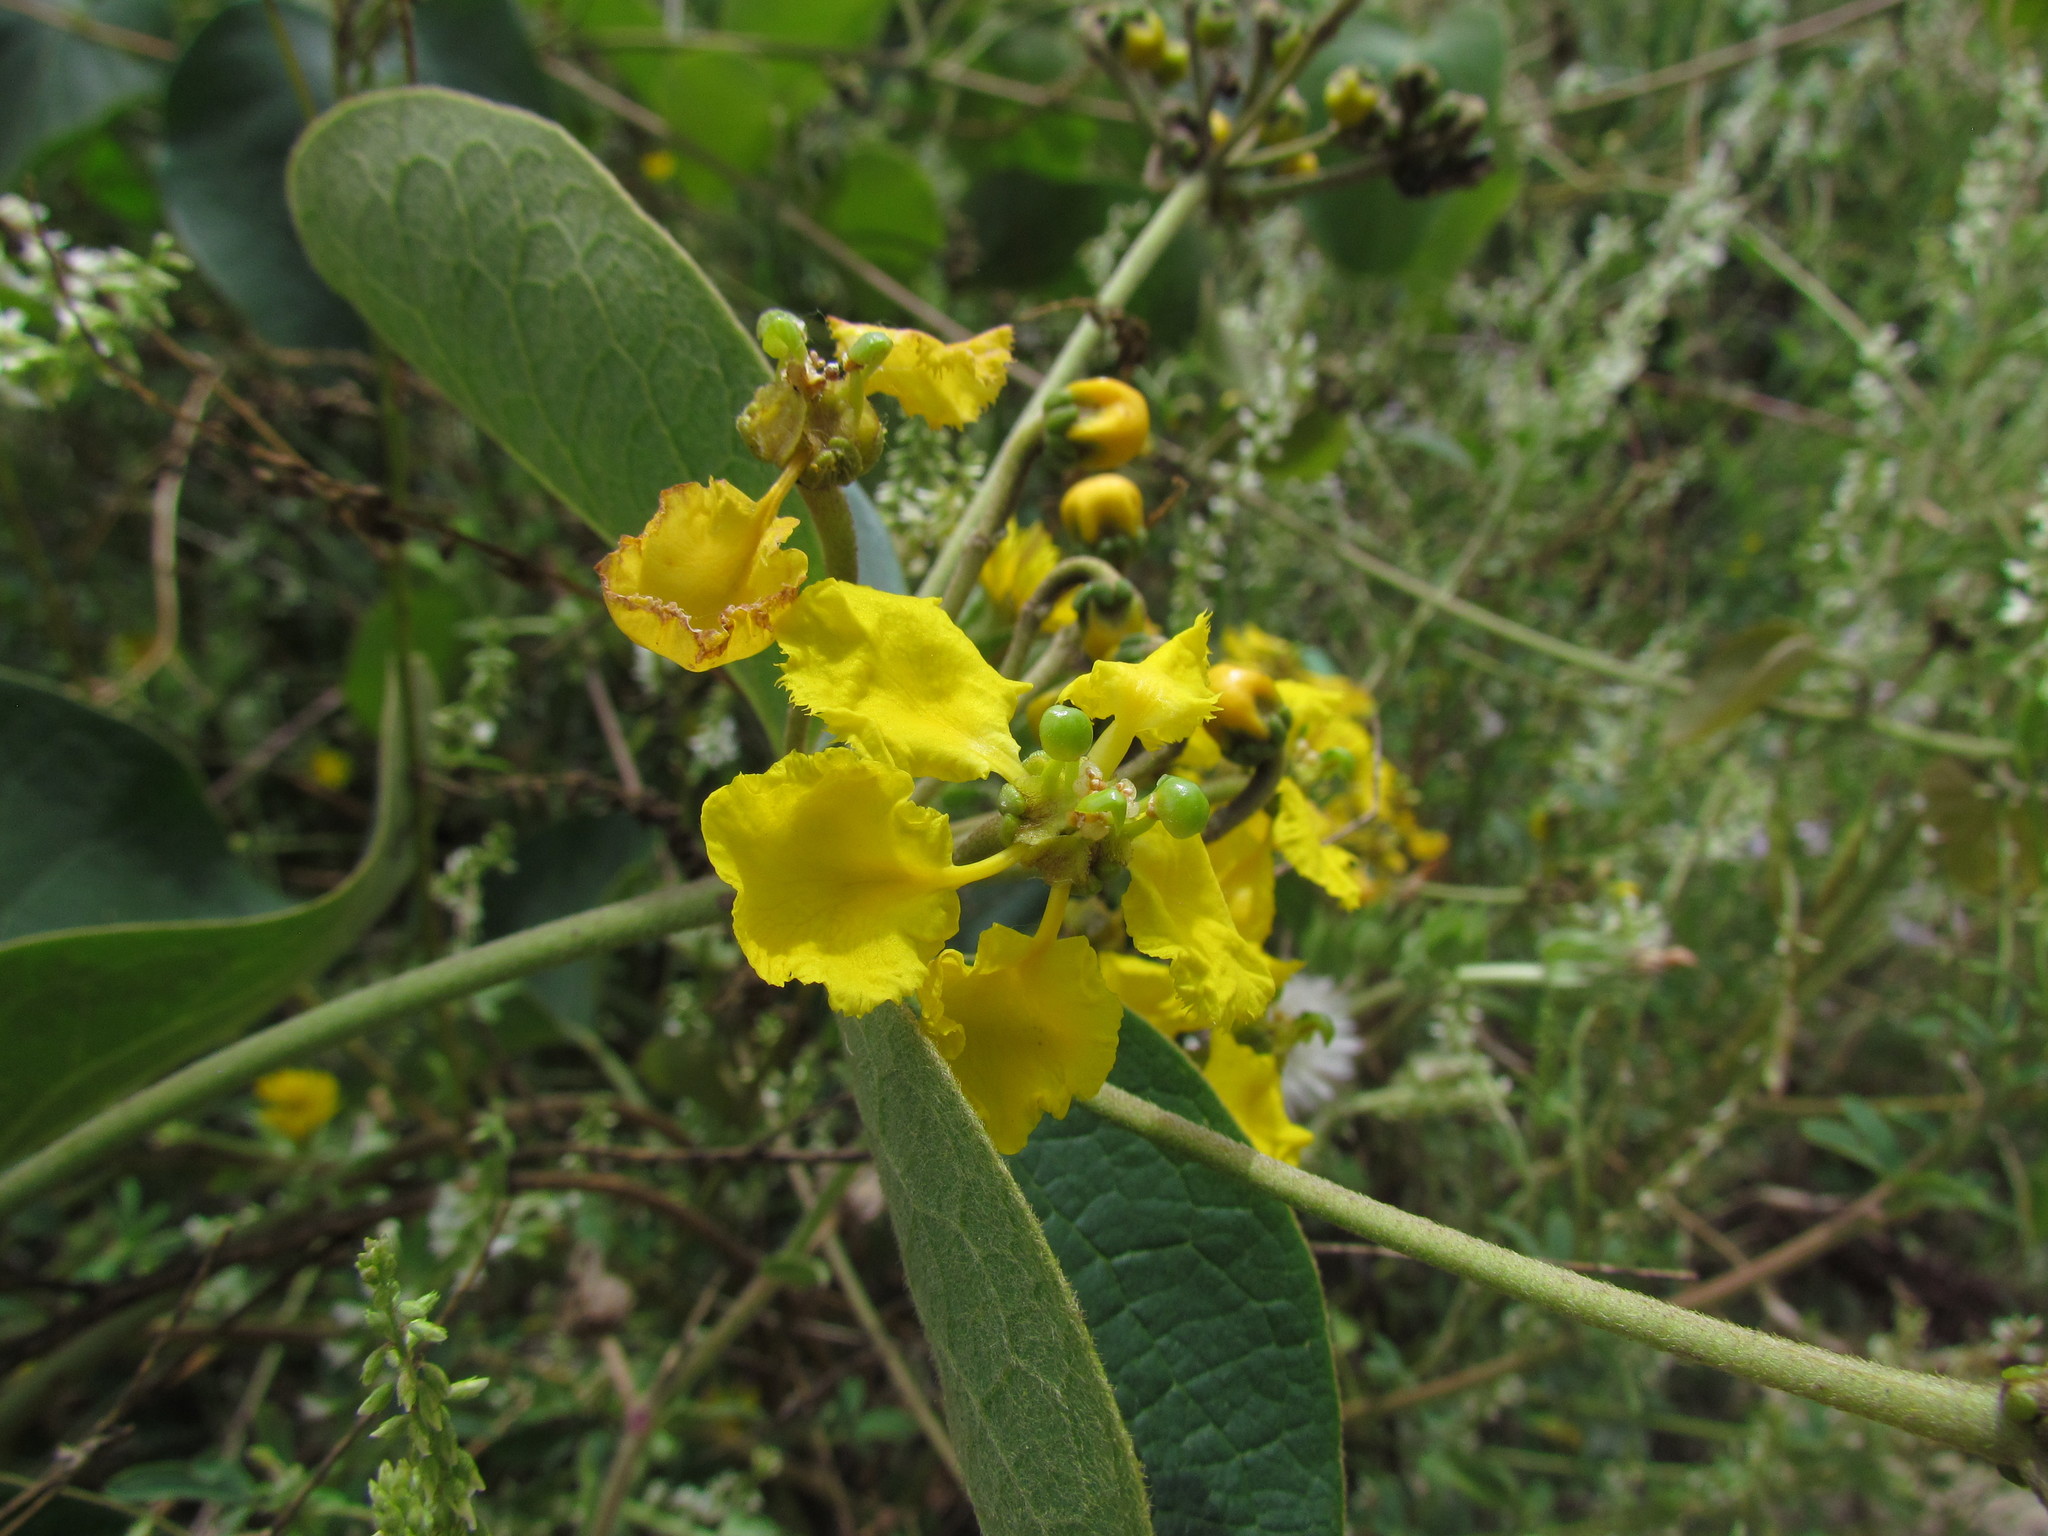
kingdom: Plantae
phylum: Tracheophyta
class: Magnoliopsida
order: Malpighiales
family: Malpighiaceae
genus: Stigmaphyllon
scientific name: Stigmaphyllon bonariense
